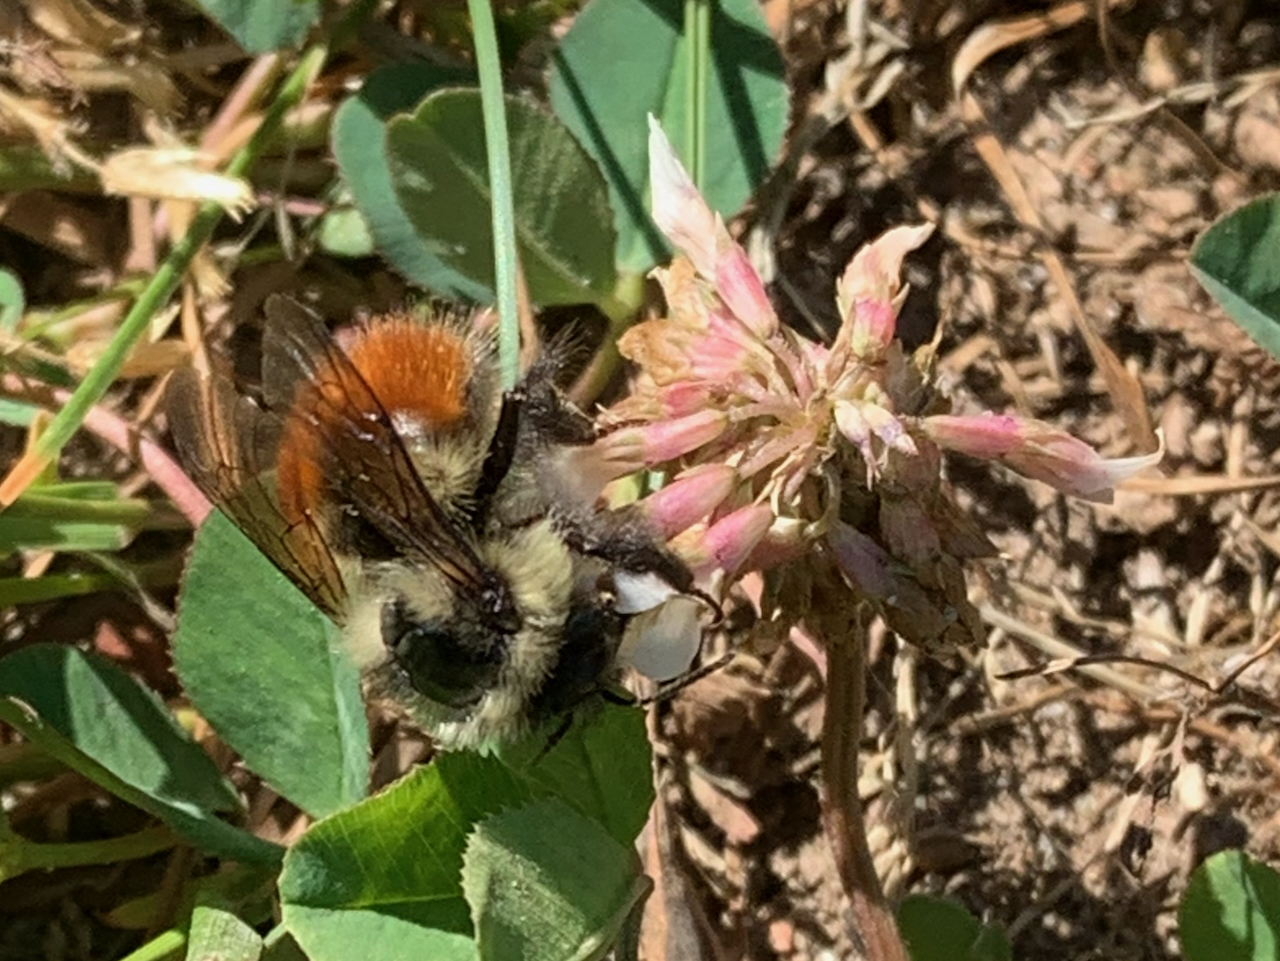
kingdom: Animalia
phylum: Arthropoda
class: Insecta
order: Hymenoptera
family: Apidae
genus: Bombus
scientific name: Bombus melanopygus
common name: Black tail bumble bee
